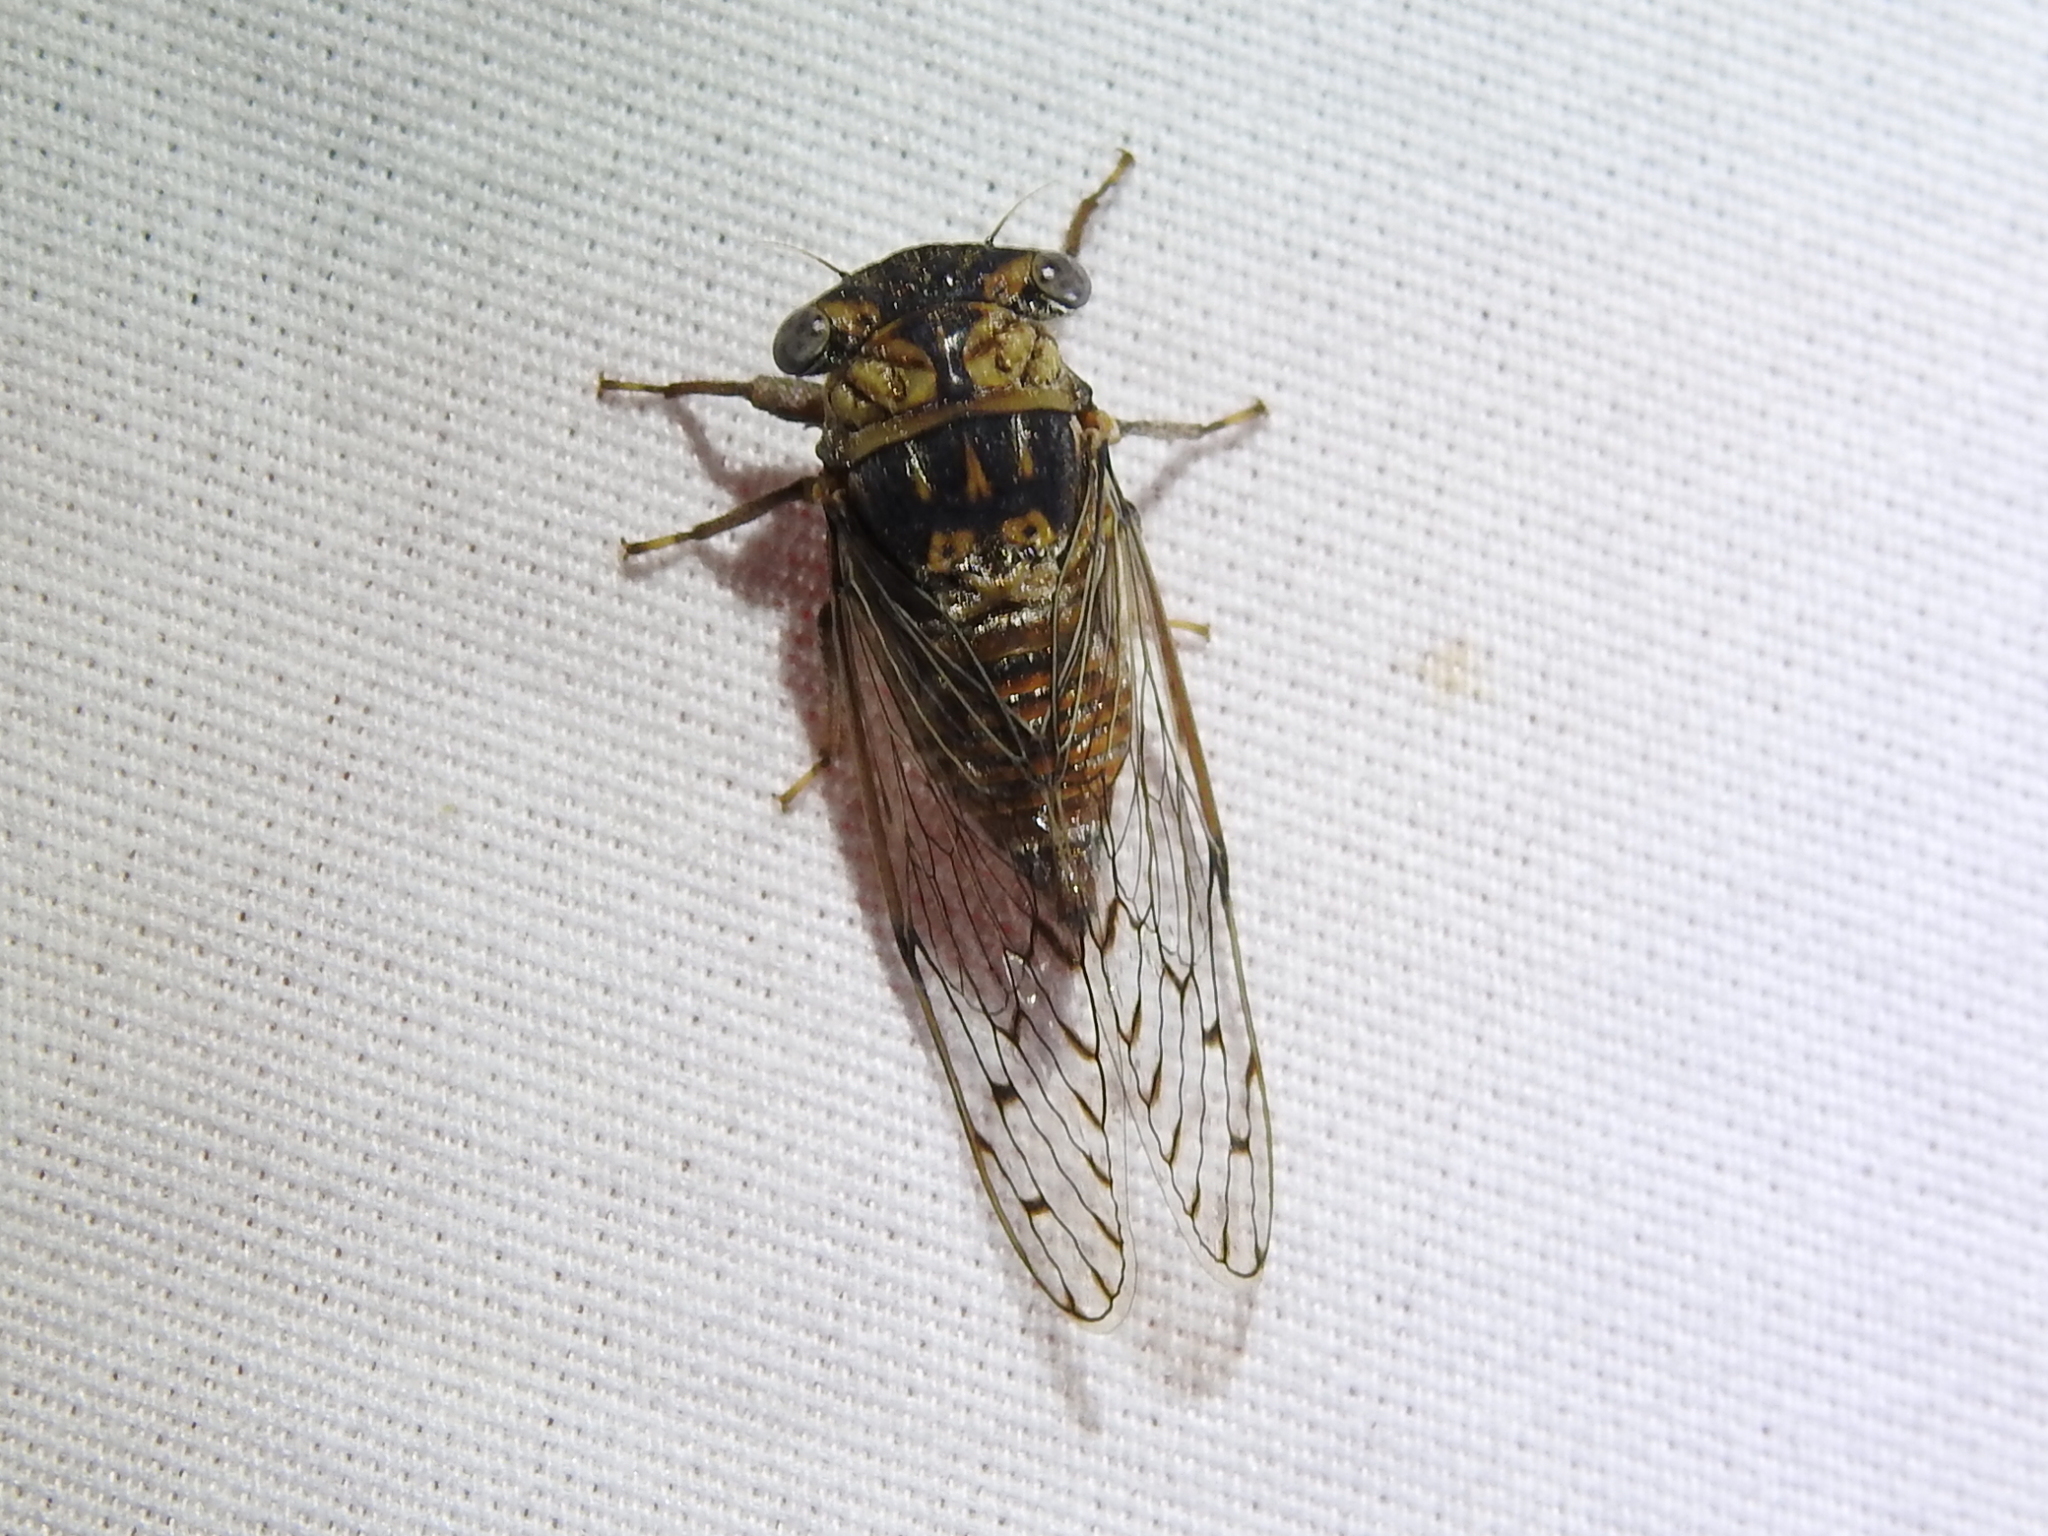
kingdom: Animalia
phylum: Arthropoda
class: Insecta
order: Hemiptera
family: Cicadidae
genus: Pacarina
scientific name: Pacarina puella
